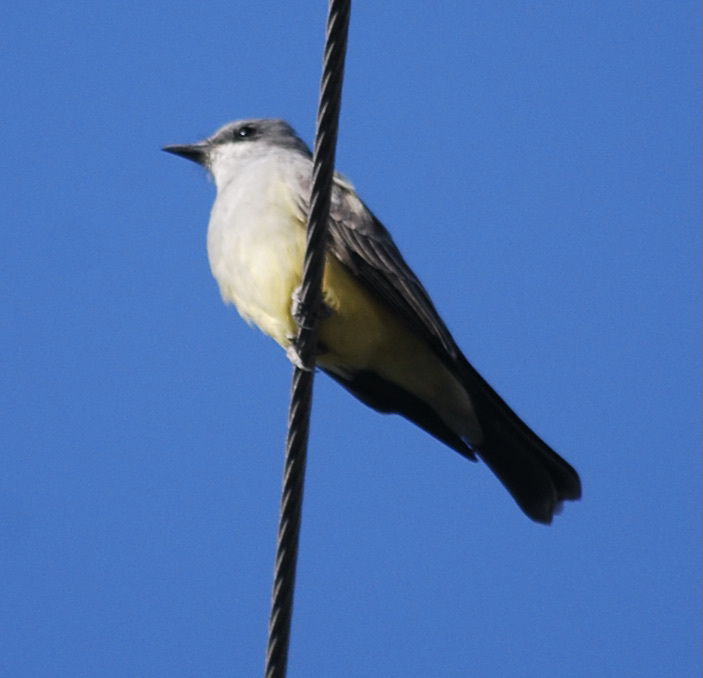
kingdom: Animalia
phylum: Chordata
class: Aves
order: Passeriformes
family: Tyrannidae
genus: Tyrannus
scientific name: Tyrannus vociferans
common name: Cassin's kingbird
